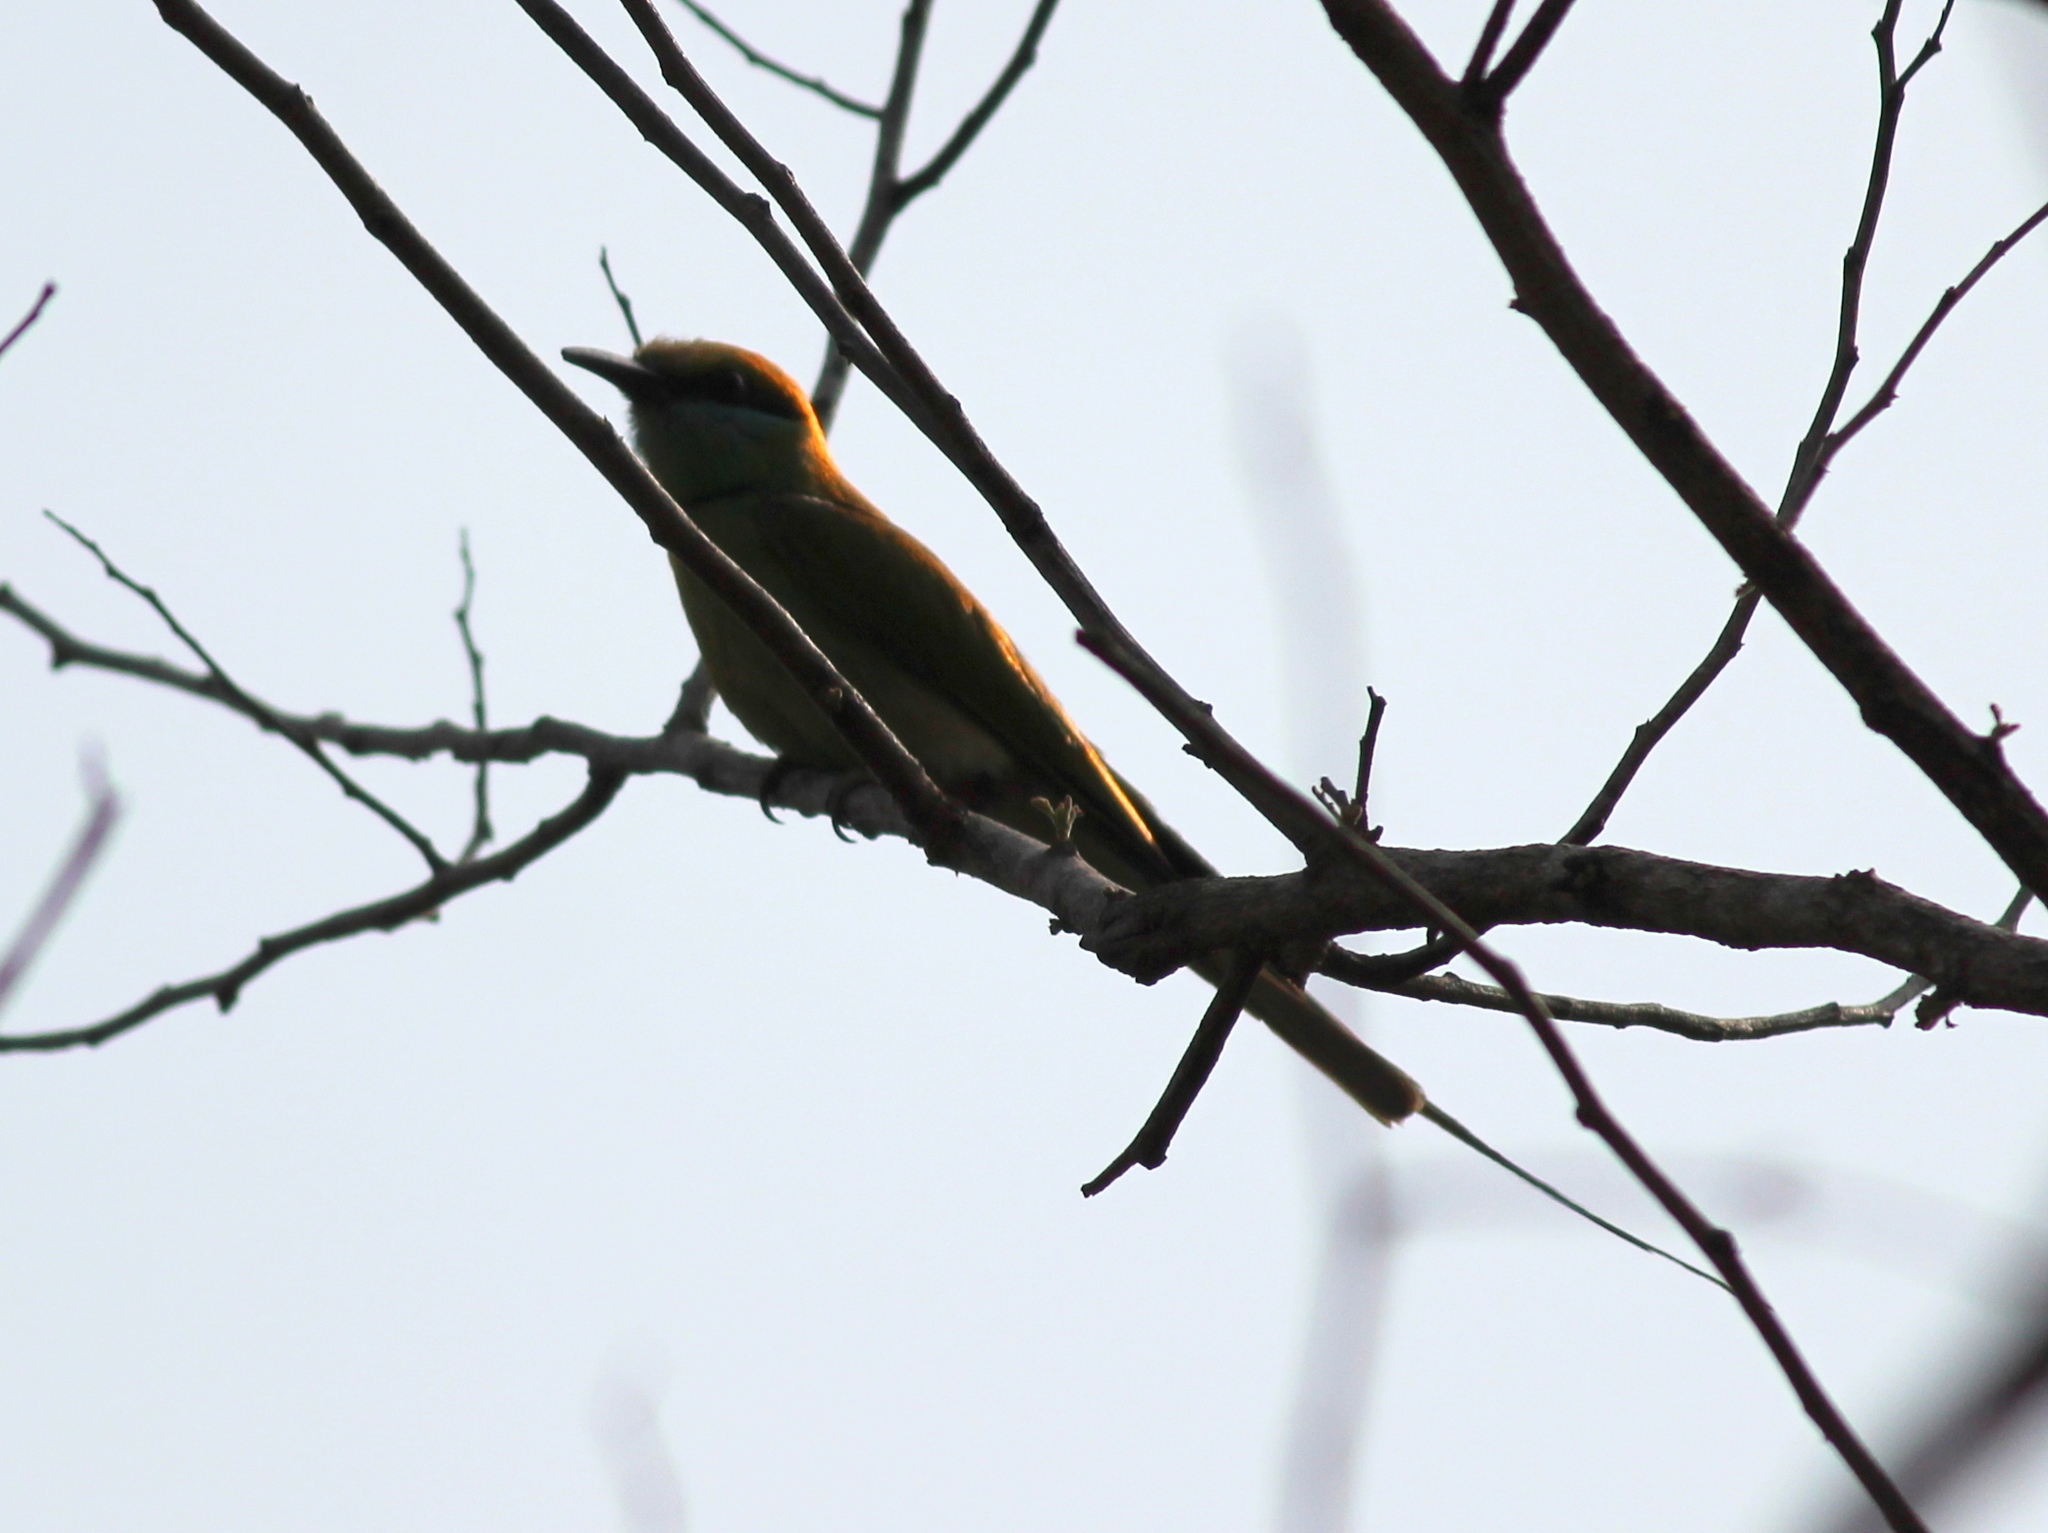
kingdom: Animalia
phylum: Chordata
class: Aves
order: Coraciiformes
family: Meropidae
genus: Merops
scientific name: Merops orientalis
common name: Green bee-eater
